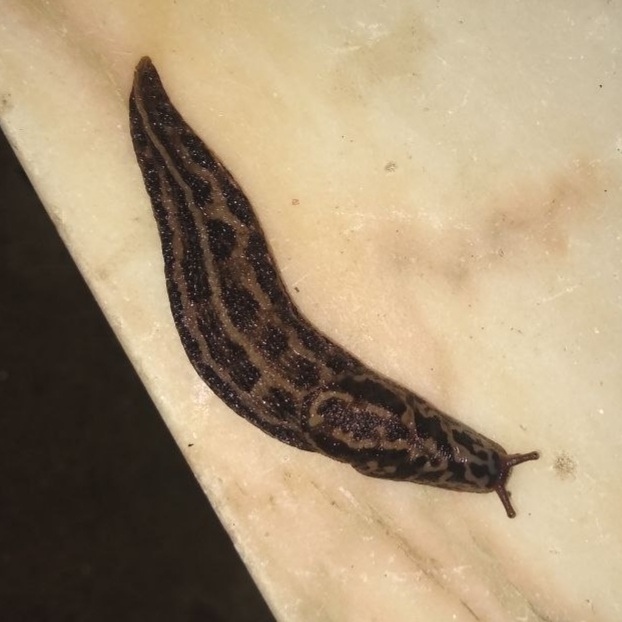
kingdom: Animalia
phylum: Mollusca
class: Gastropoda
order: Stylommatophora
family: Limacidae
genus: Limax
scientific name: Limax maximus
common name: Great grey slug
